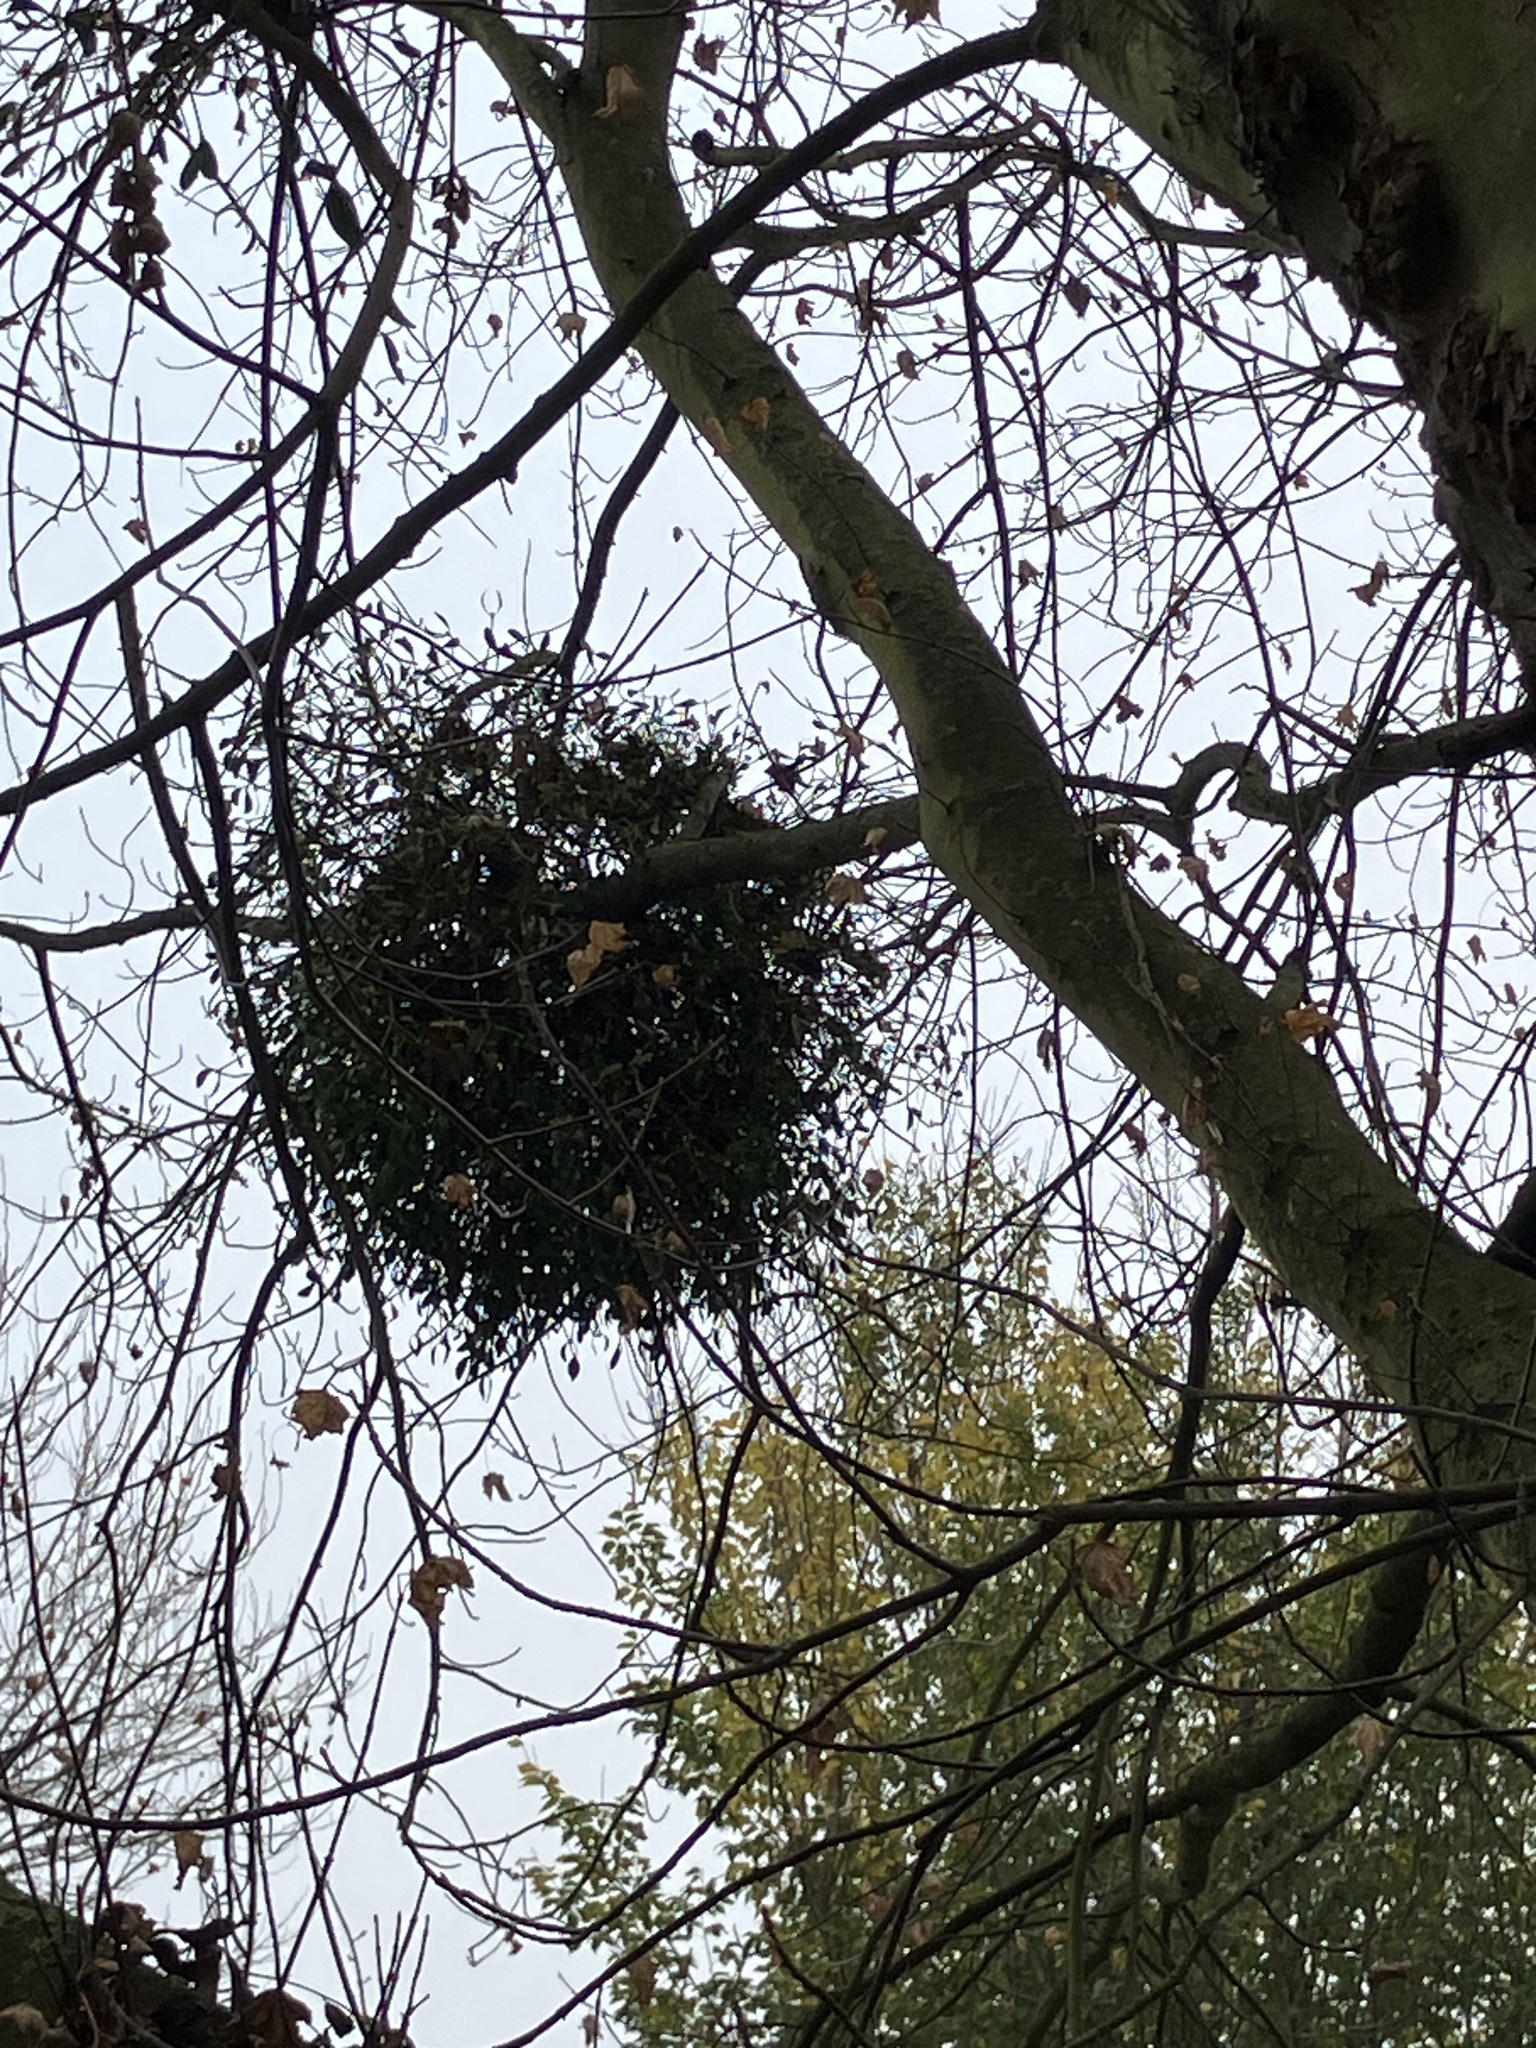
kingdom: Plantae
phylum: Tracheophyta
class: Magnoliopsida
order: Santalales
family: Viscaceae
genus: Viscum
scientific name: Viscum album
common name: Mistletoe
